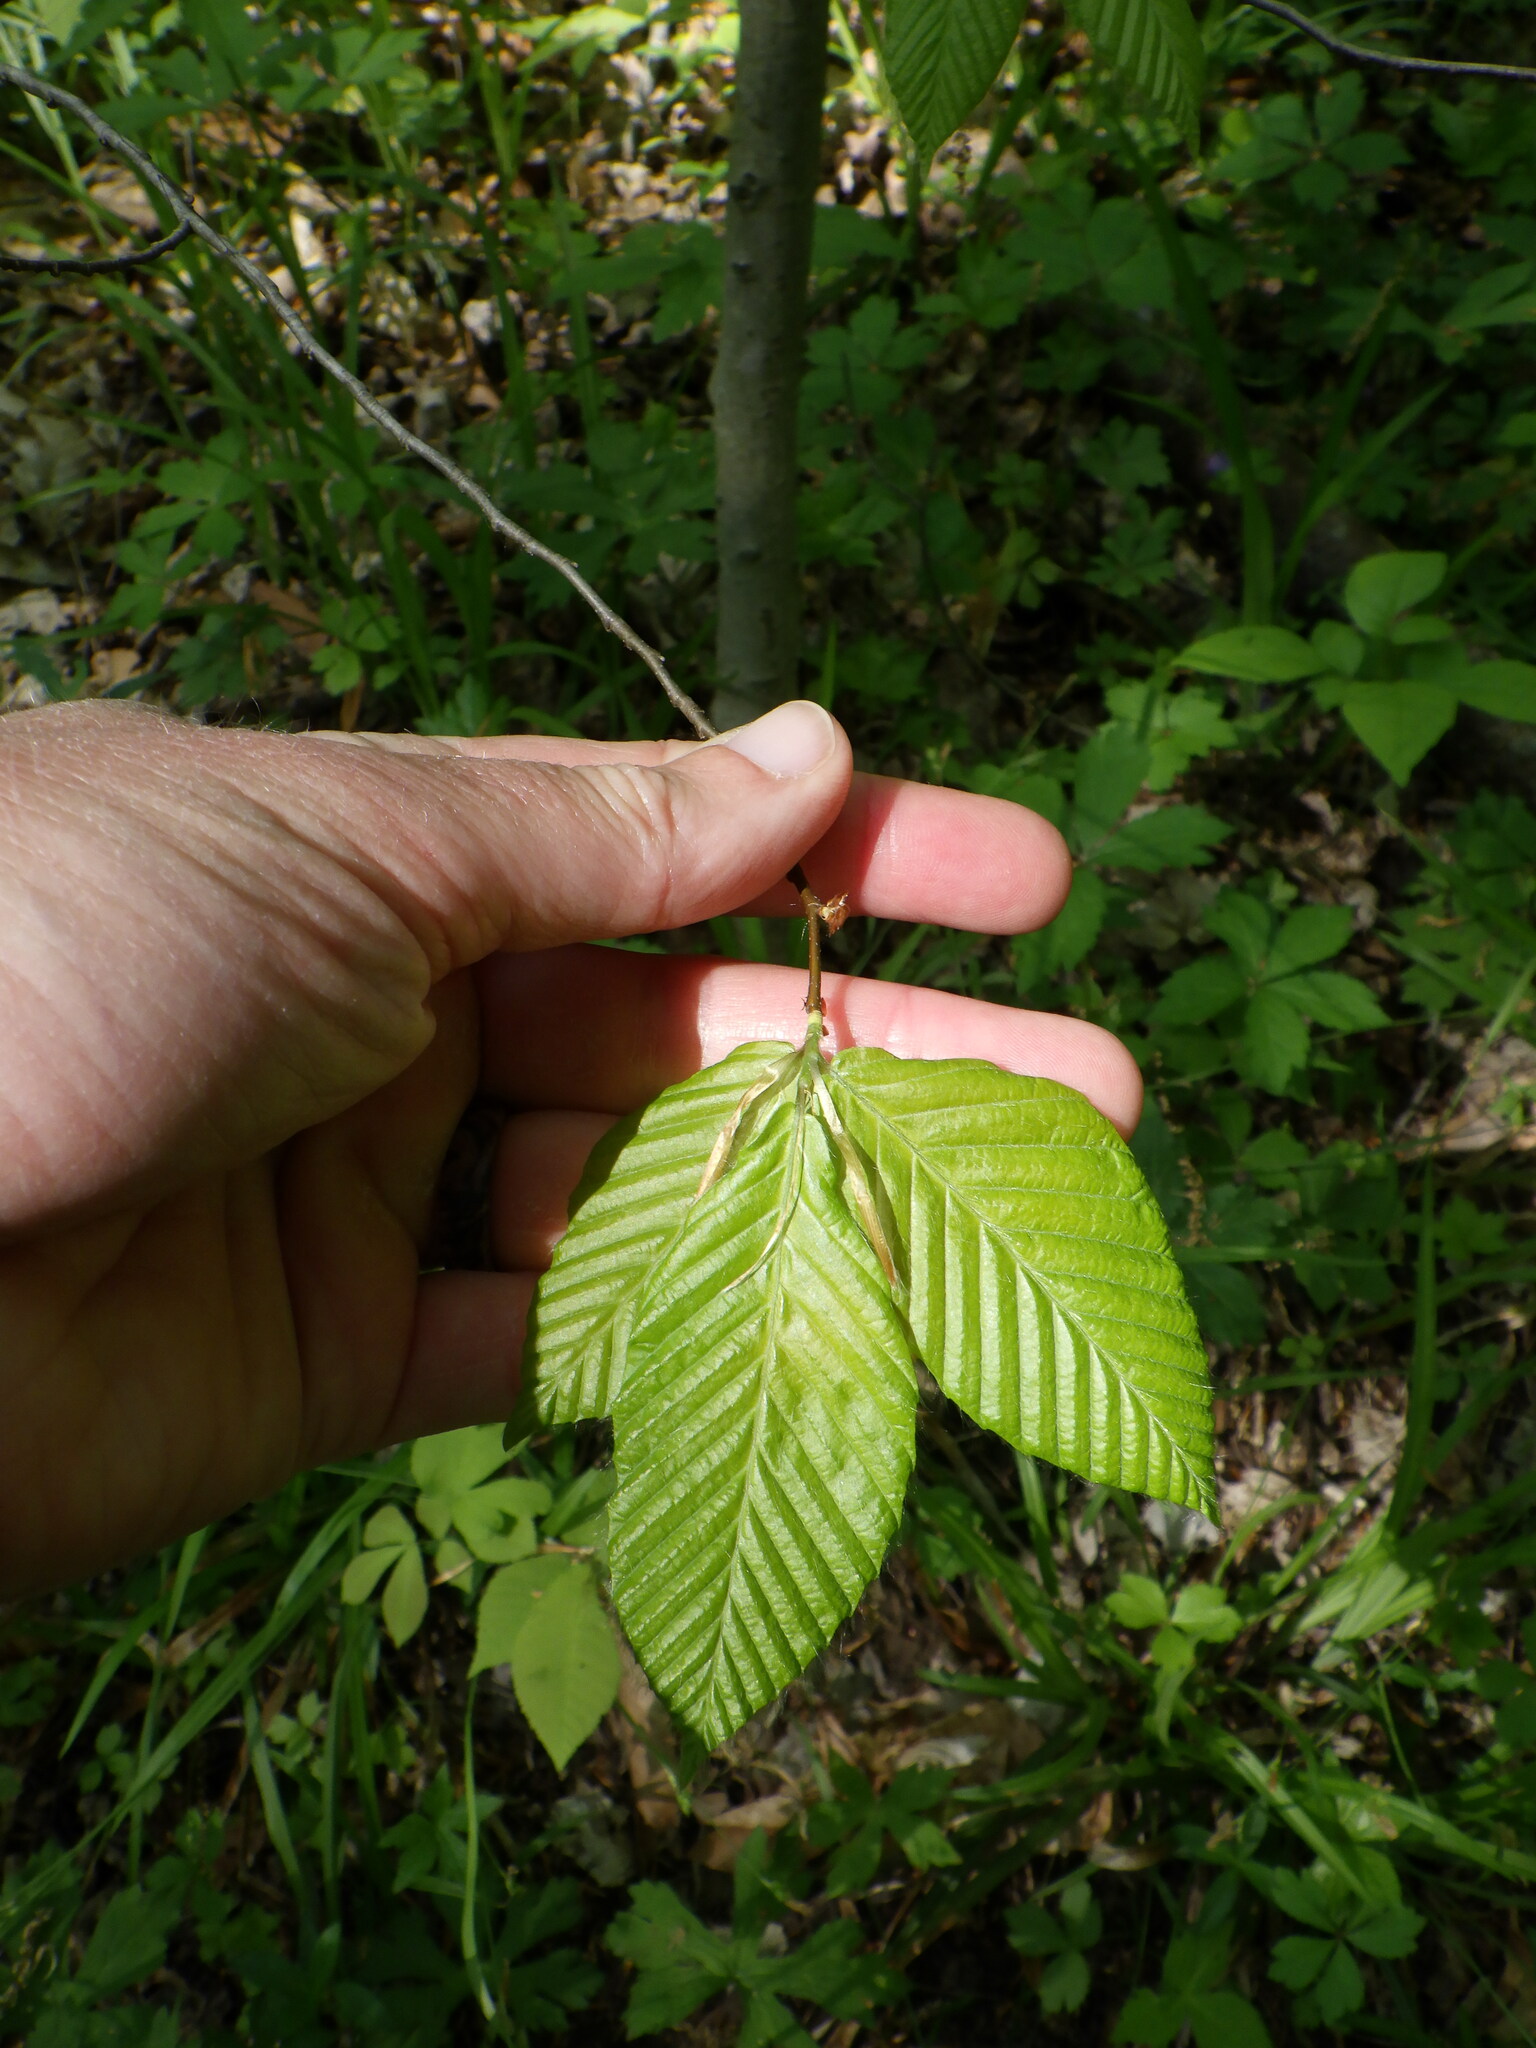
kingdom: Plantae
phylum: Tracheophyta
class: Magnoliopsida
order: Fagales
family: Fagaceae
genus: Fagus
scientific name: Fagus grandifolia
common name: American beech
